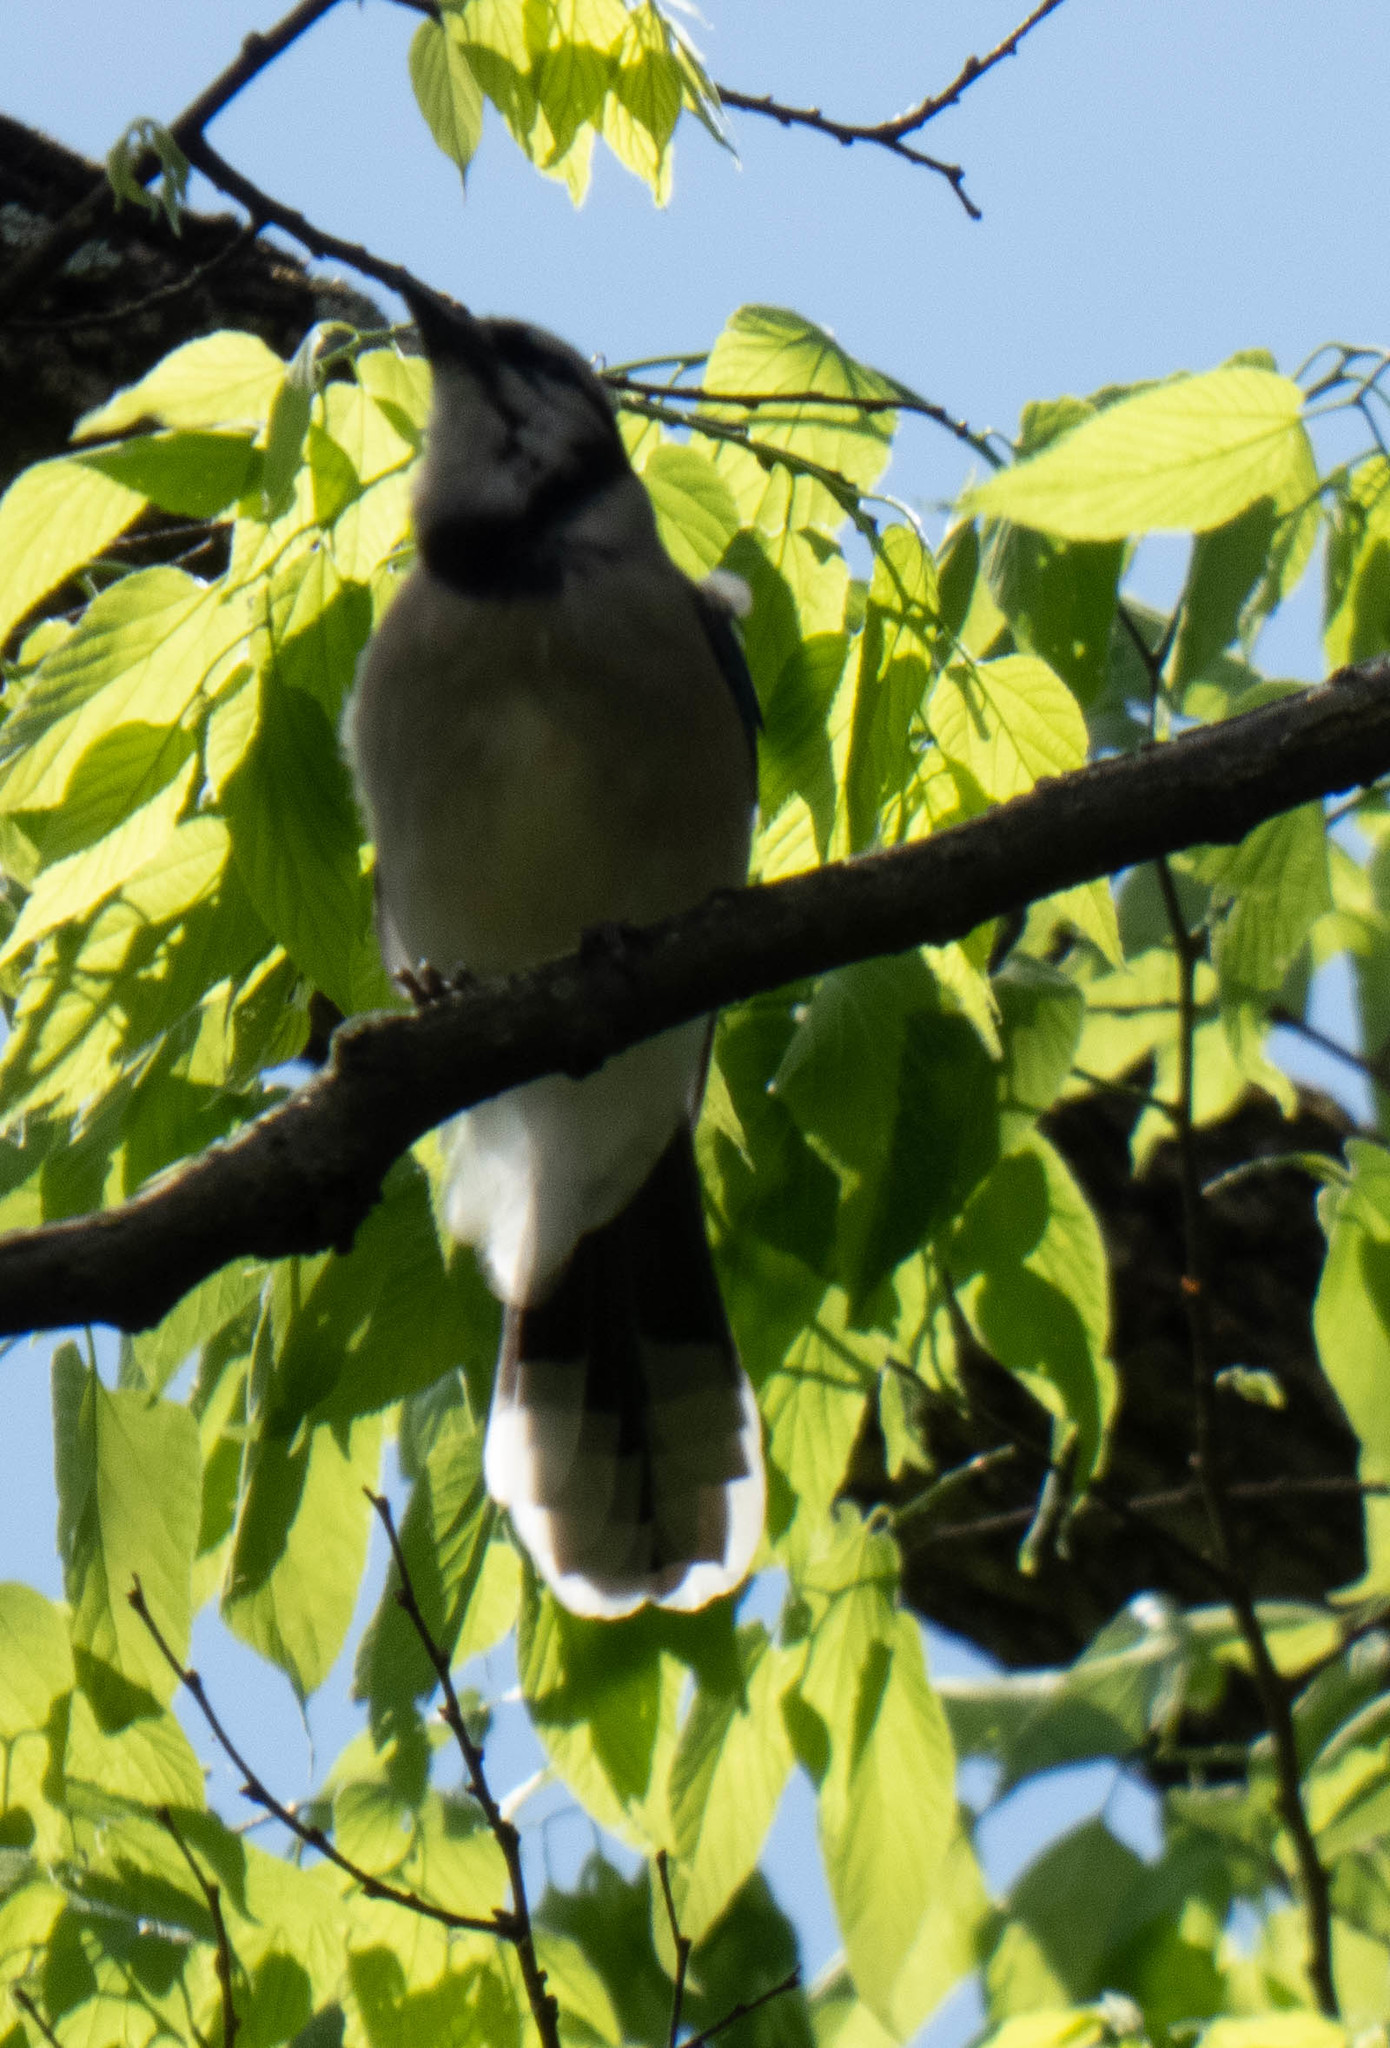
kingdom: Animalia
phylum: Chordata
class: Aves
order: Passeriformes
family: Corvidae
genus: Cyanocitta
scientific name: Cyanocitta cristata
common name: Blue jay
